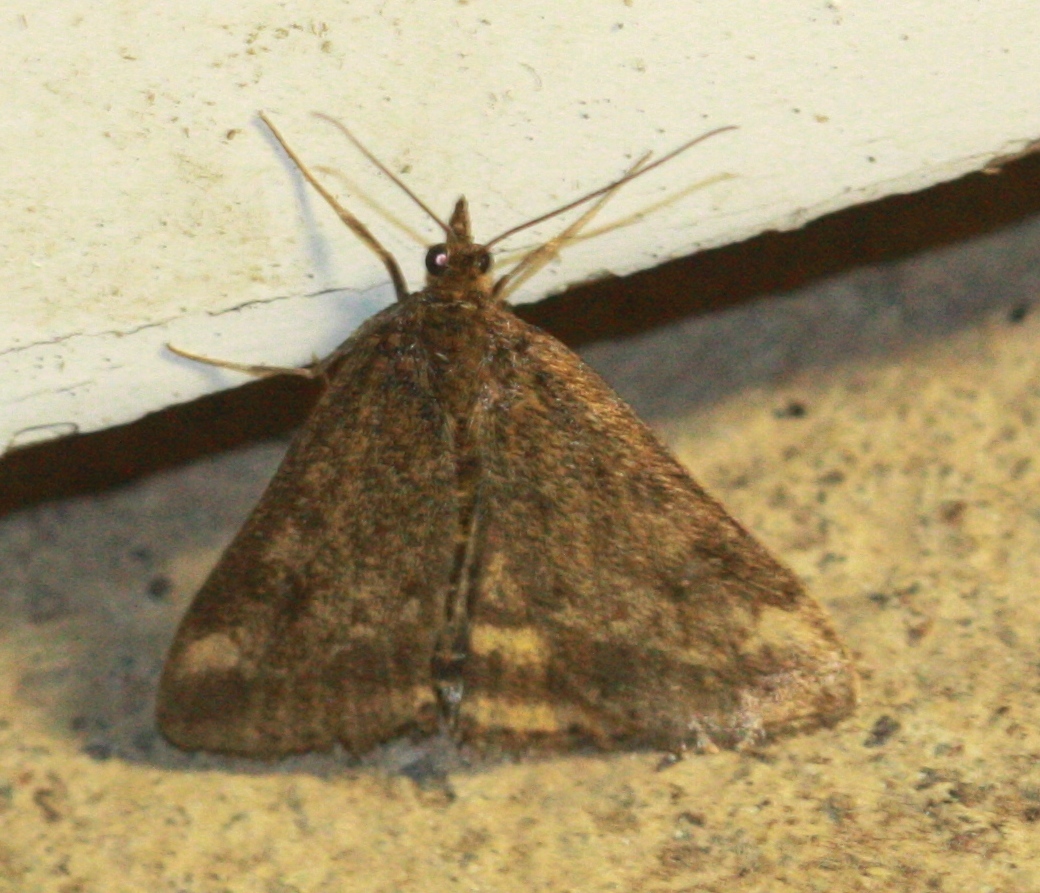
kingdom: Animalia
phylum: Arthropoda
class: Insecta
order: Lepidoptera
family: Crambidae
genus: Pyrausta
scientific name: Pyrausta subsequalis
